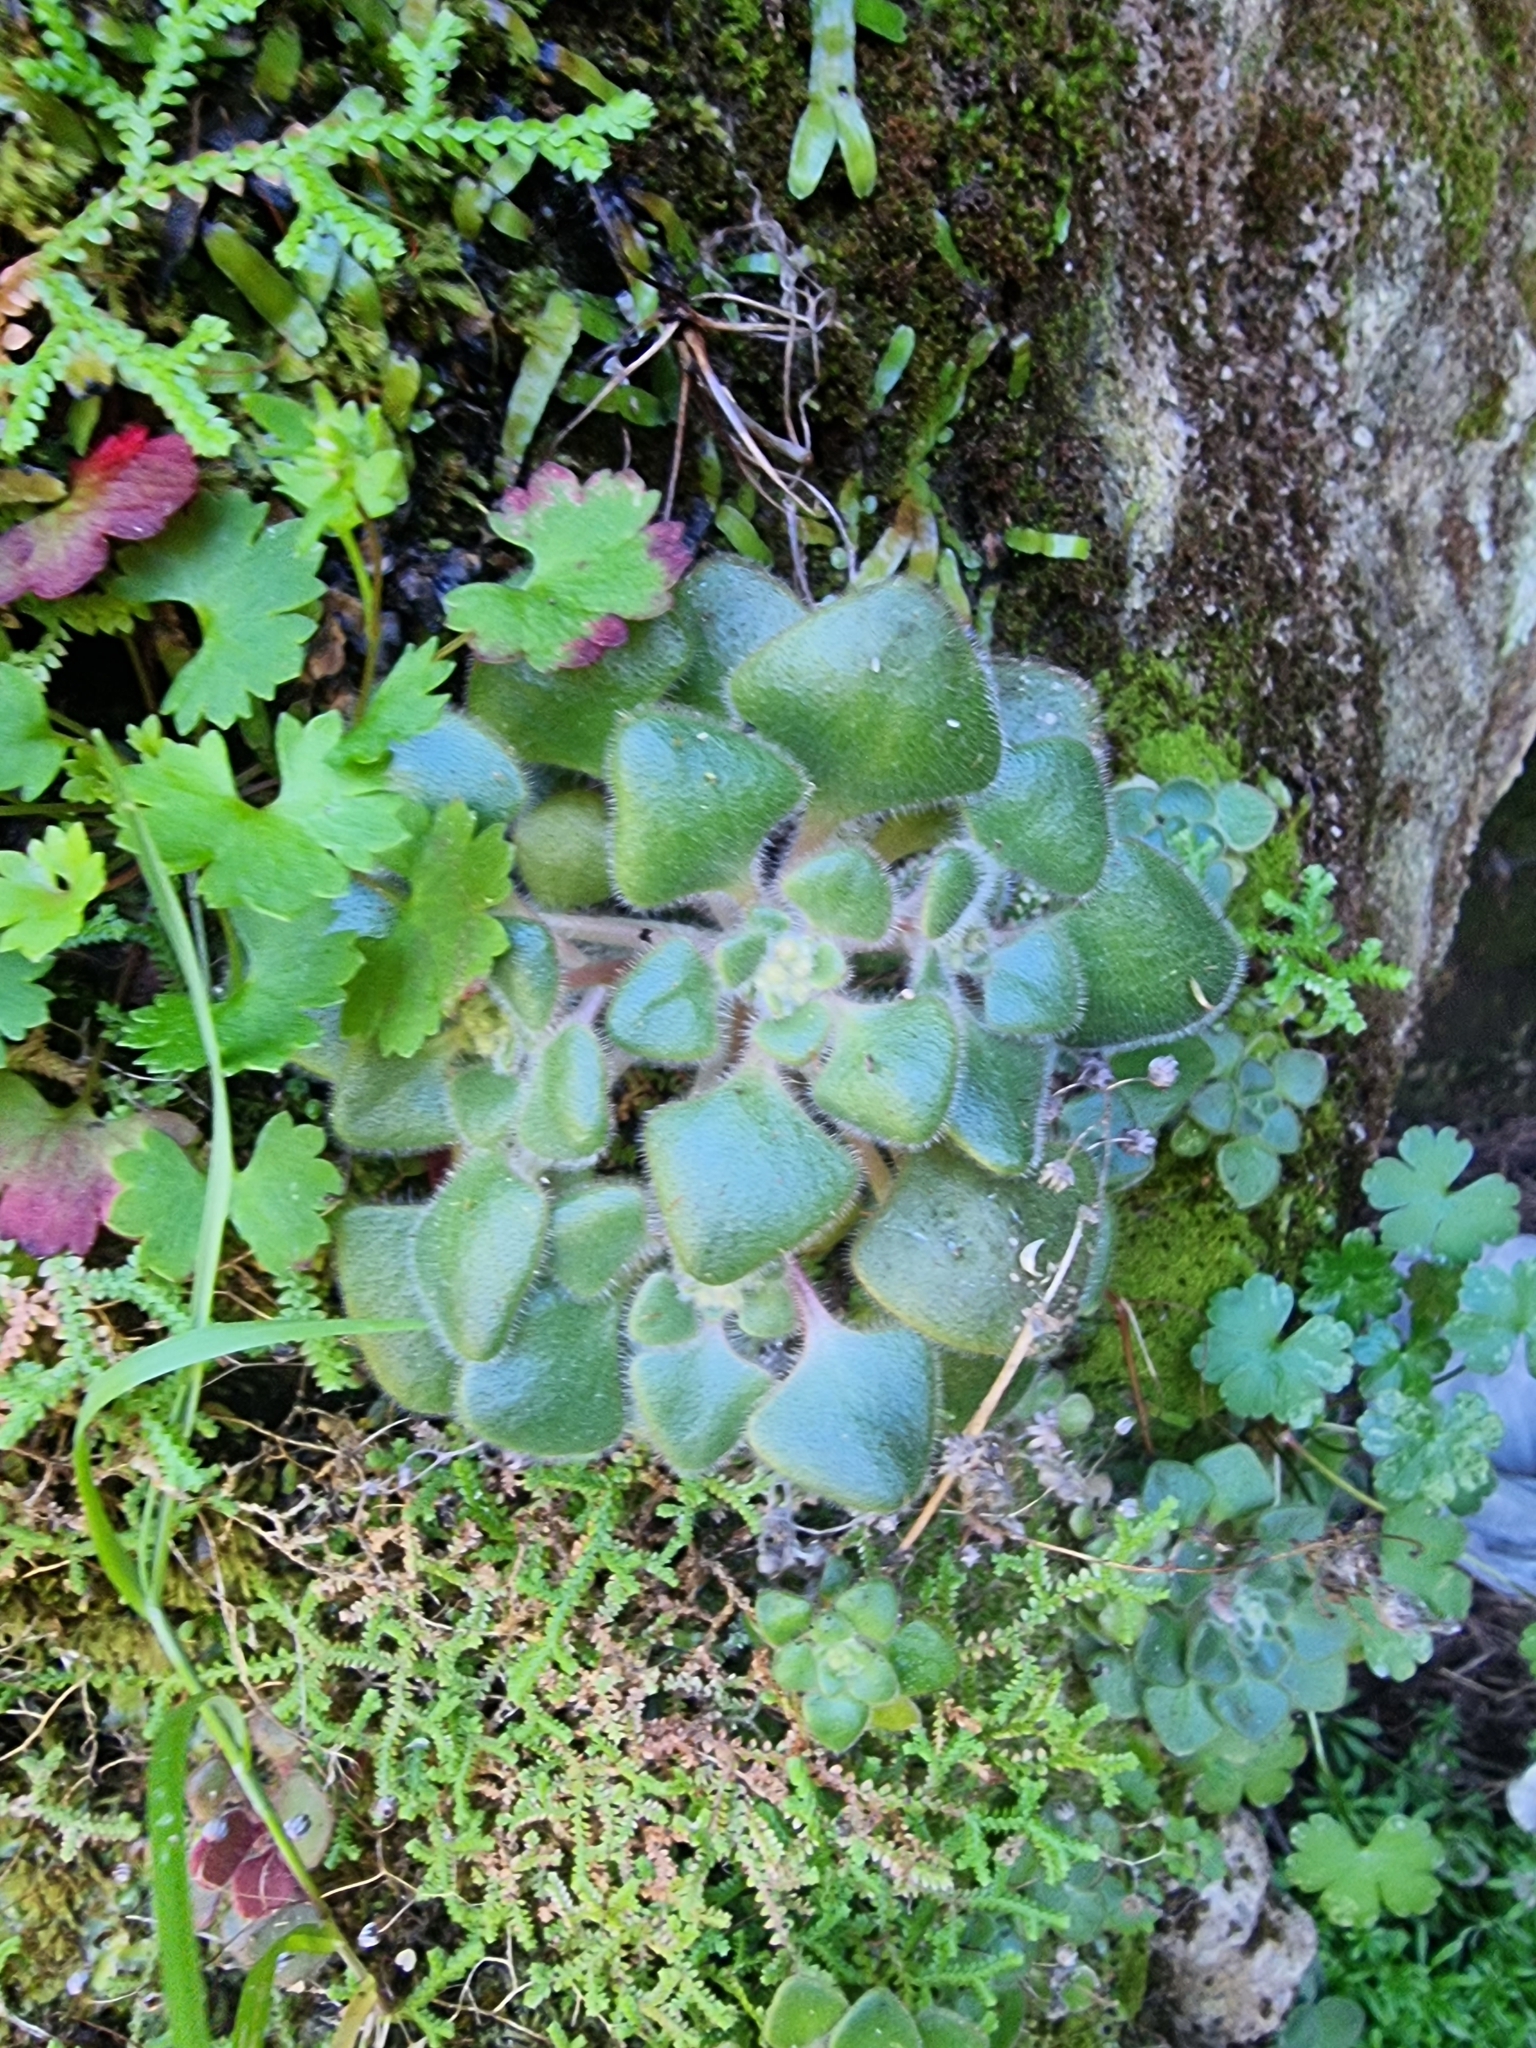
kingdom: Plantae
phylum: Tracheophyta
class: Magnoliopsida
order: Saxifragales
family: Crassulaceae
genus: Aichryson
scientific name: Aichryson villosum
